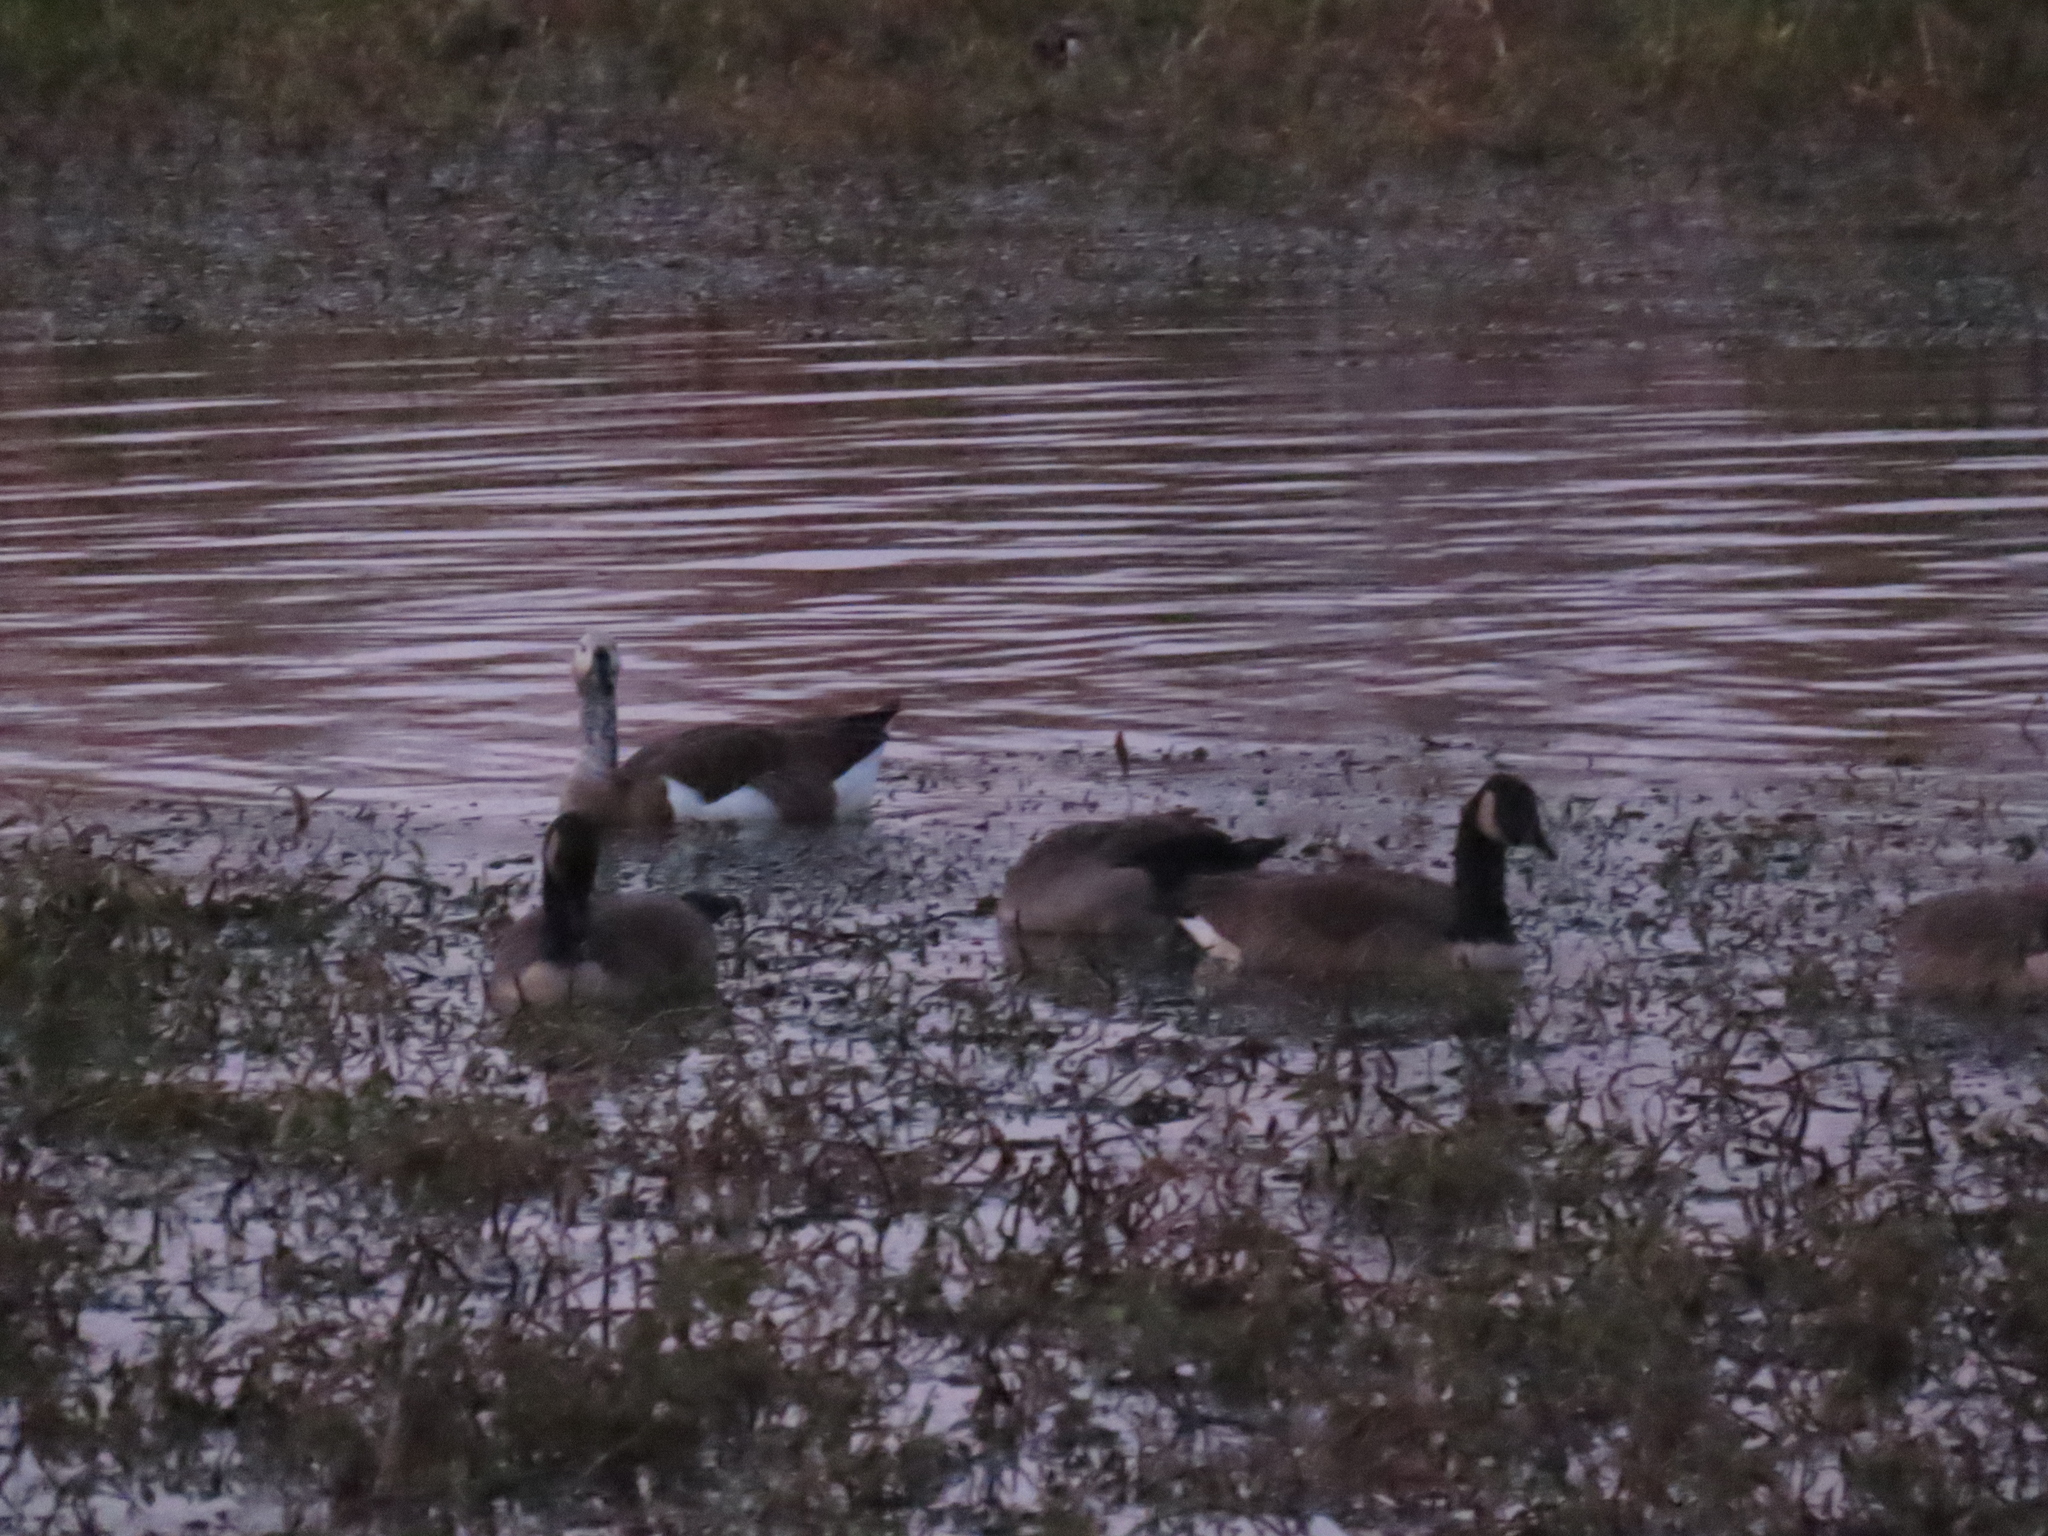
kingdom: Animalia
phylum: Chordata
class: Aves
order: Anseriformes
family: Anatidae
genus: Branta
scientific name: Branta canadensis
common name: Canada goose
